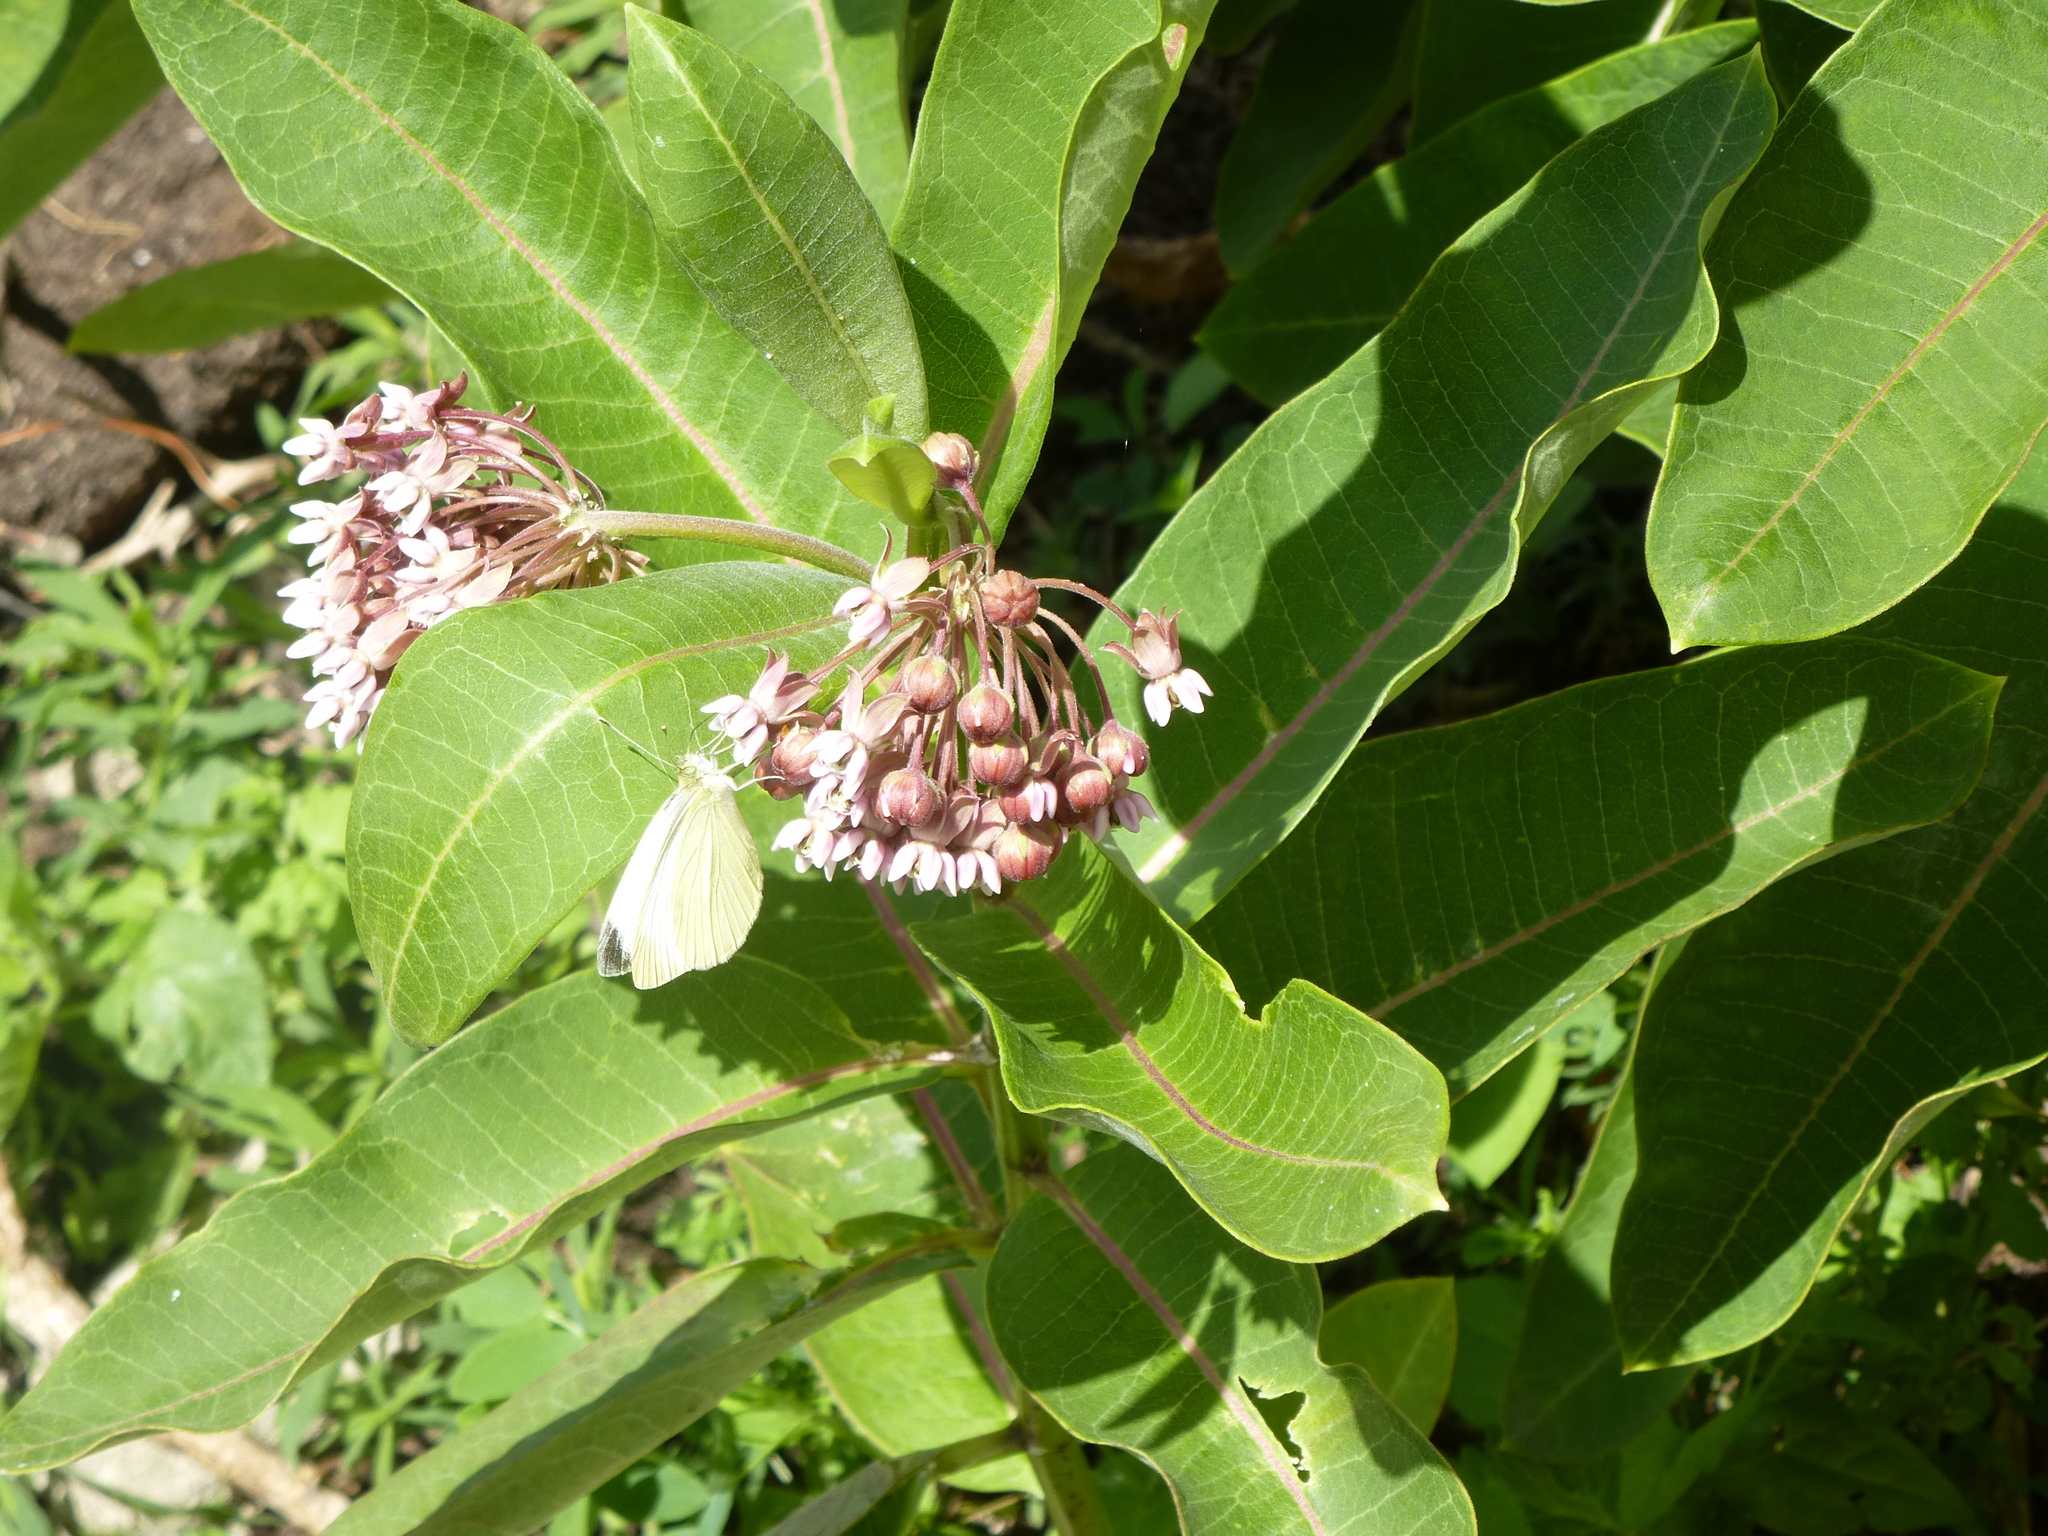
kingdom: Animalia
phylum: Arthropoda
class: Insecta
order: Lepidoptera
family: Pieridae
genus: Pieris
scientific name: Pieris rapae
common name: Small white
